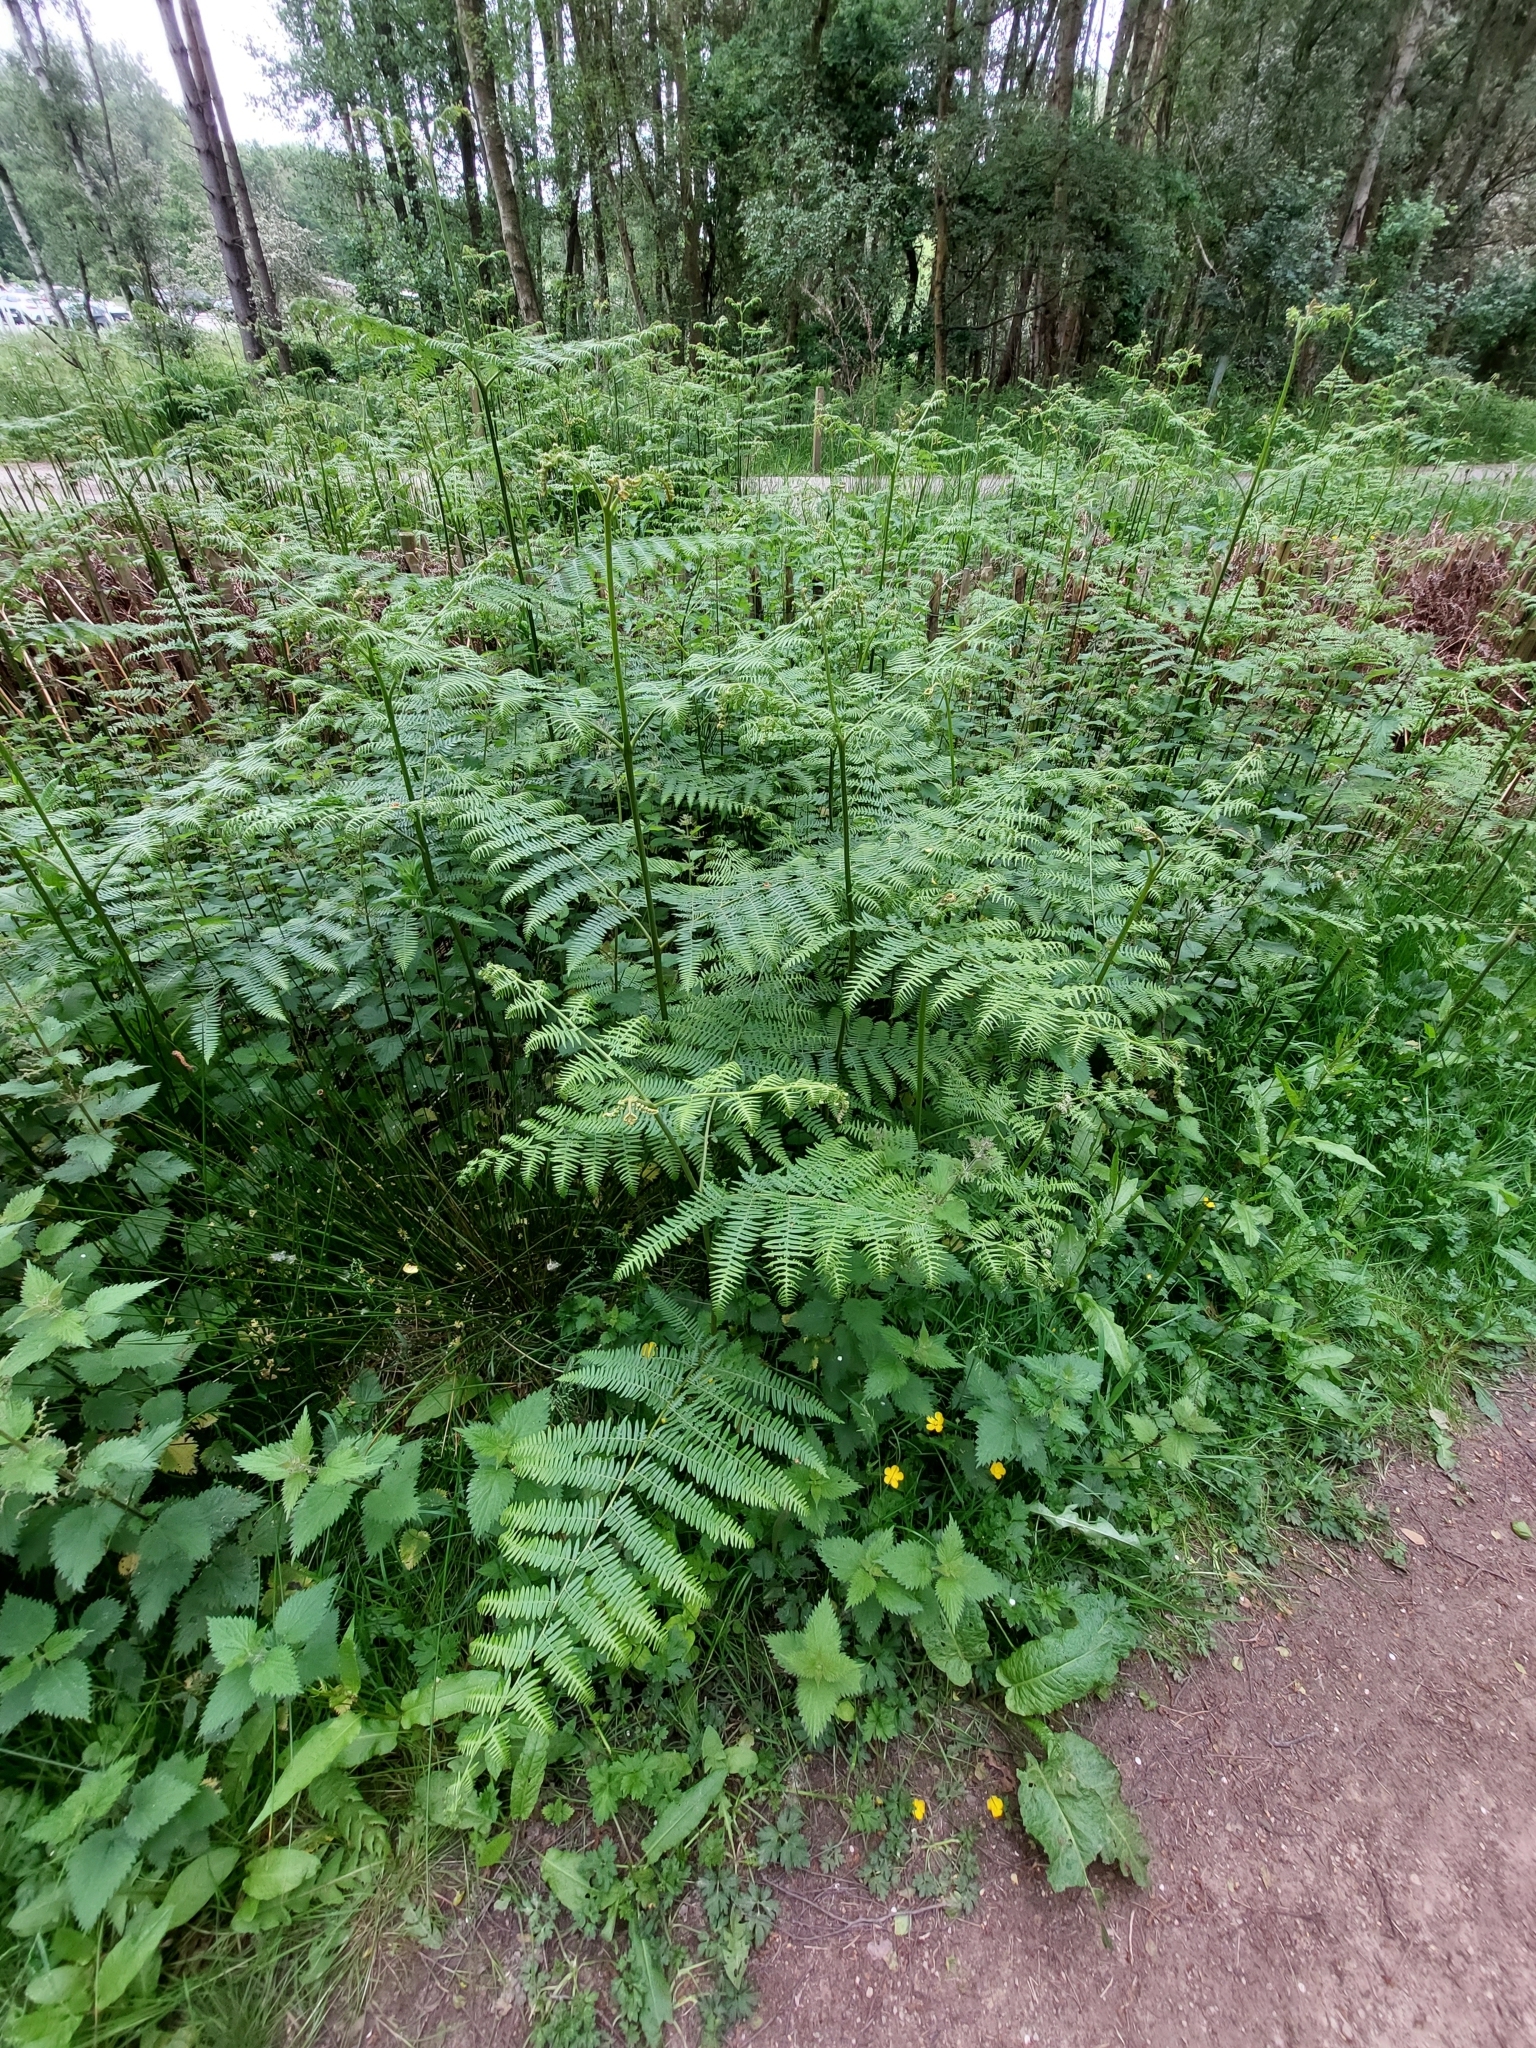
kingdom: Plantae
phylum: Tracheophyta
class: Polypodiopsida
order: Polypodiales
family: Dennstaedtiaceae
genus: Pteridium
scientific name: Pteridium aquilinum
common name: Bracken
